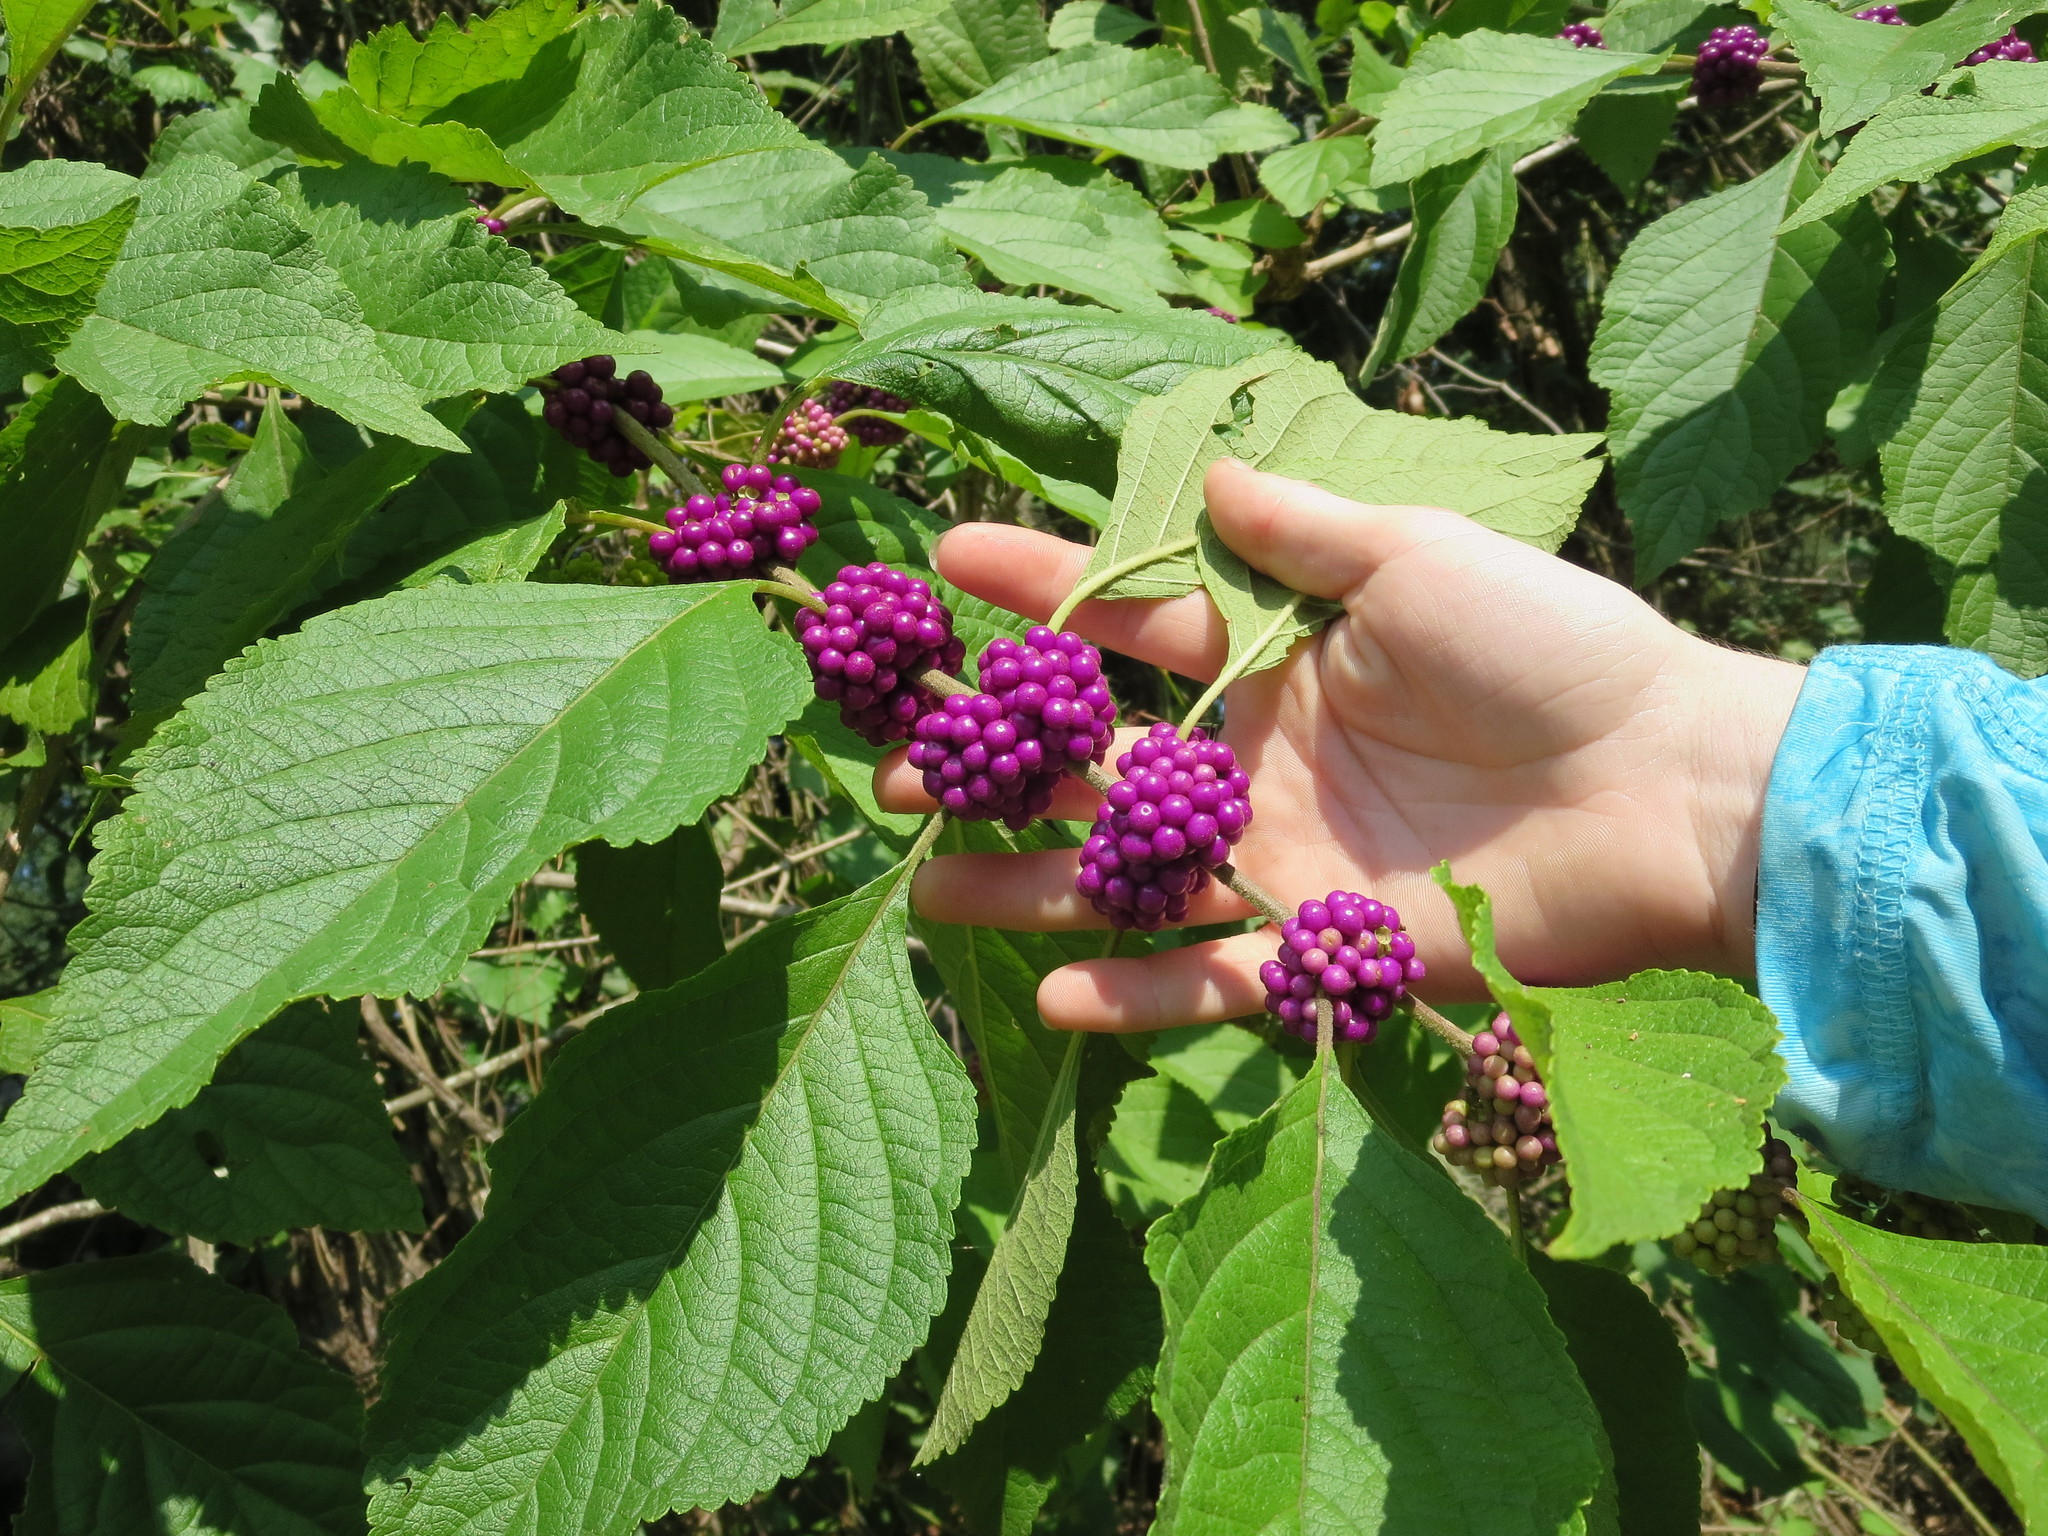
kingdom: Plantae
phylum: Tracheophyta
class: Magnoliopsida
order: Lamiales
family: Lamiaceae
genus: Callicarpa
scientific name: Callicarpa americana
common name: American beautyberry
